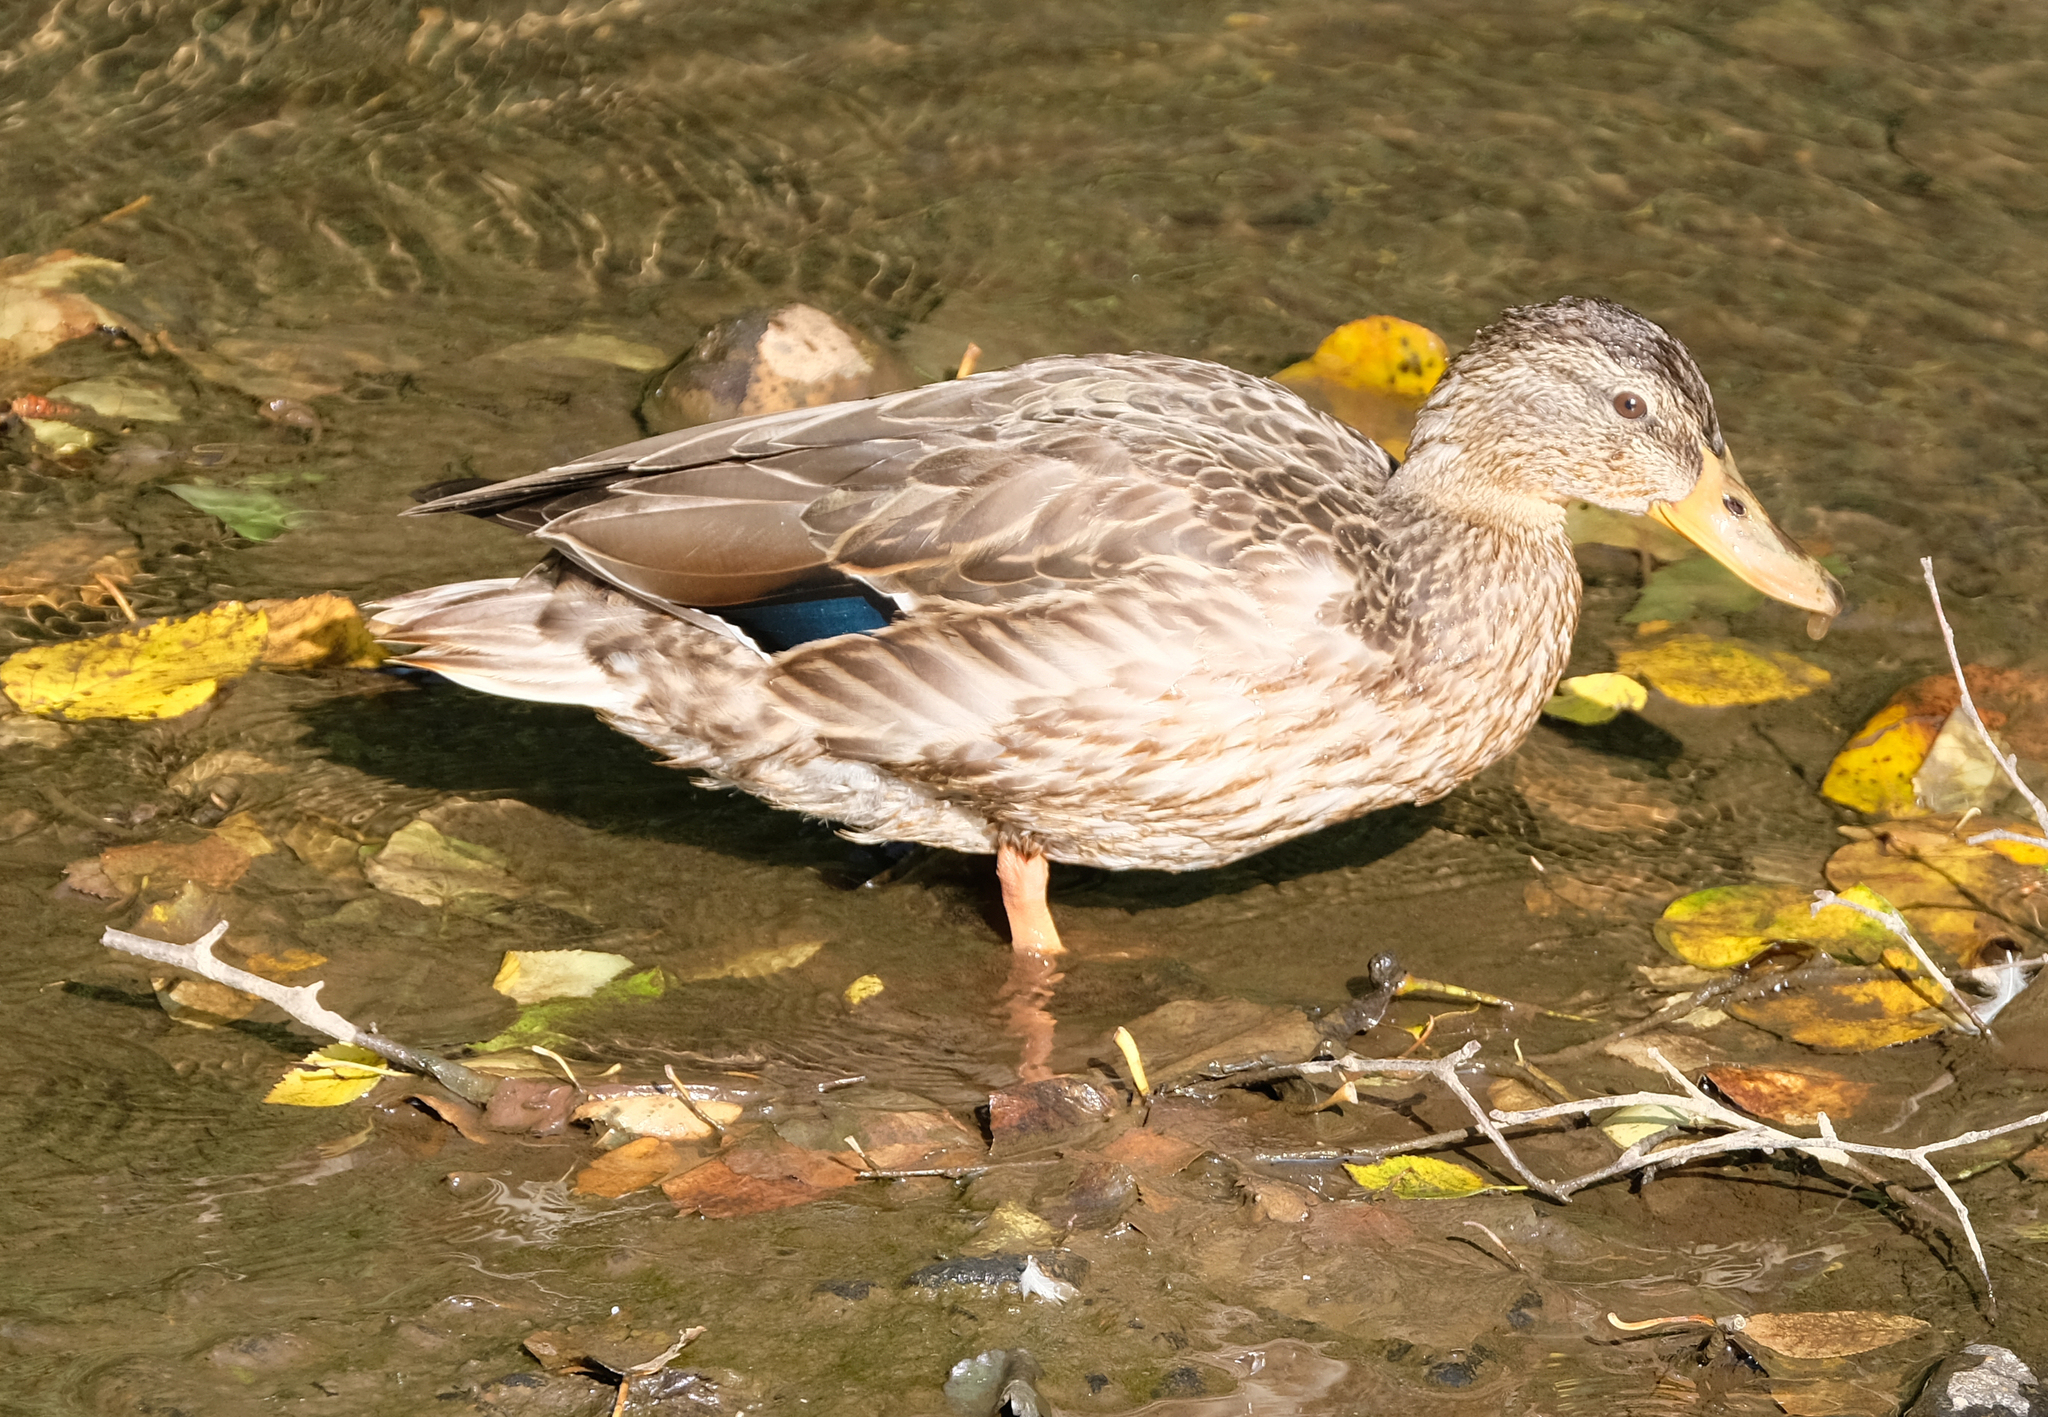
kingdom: Animalia
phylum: Chordata
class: Aves
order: Anseriformes
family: Anatidae
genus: Anas
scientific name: Anas platyrhynchos
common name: Mallard
